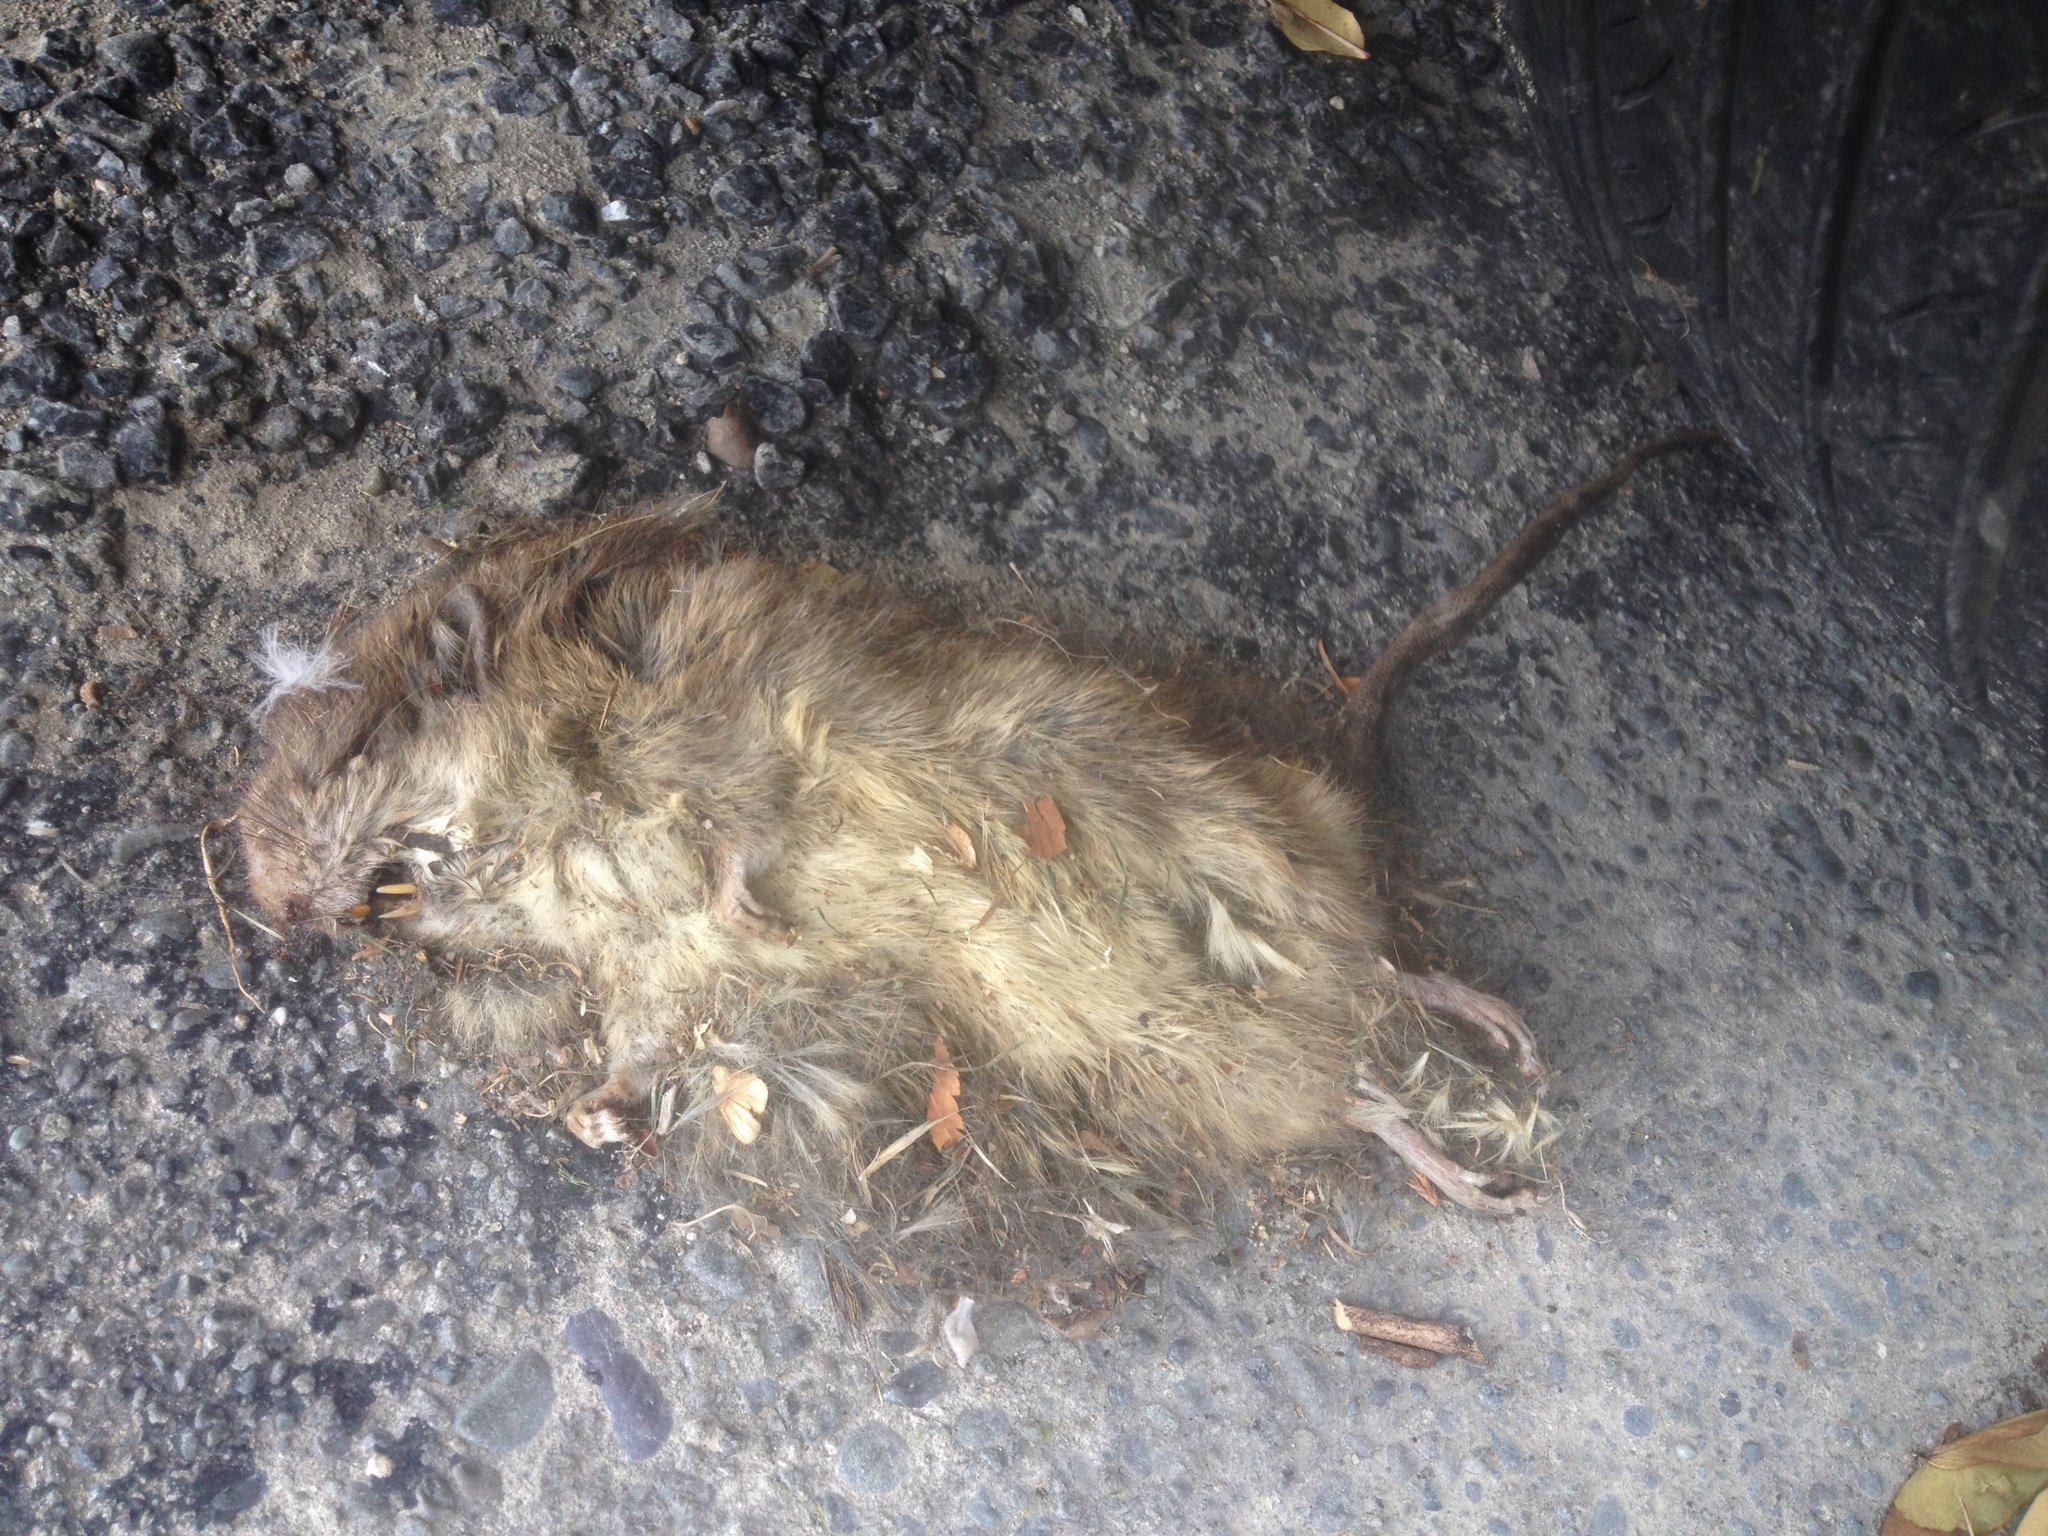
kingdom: Animalia
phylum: Chordata
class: Mammalia
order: Rodentia
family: Muridae
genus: Rattus
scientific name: Rattus norvegicus
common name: Brown rat
